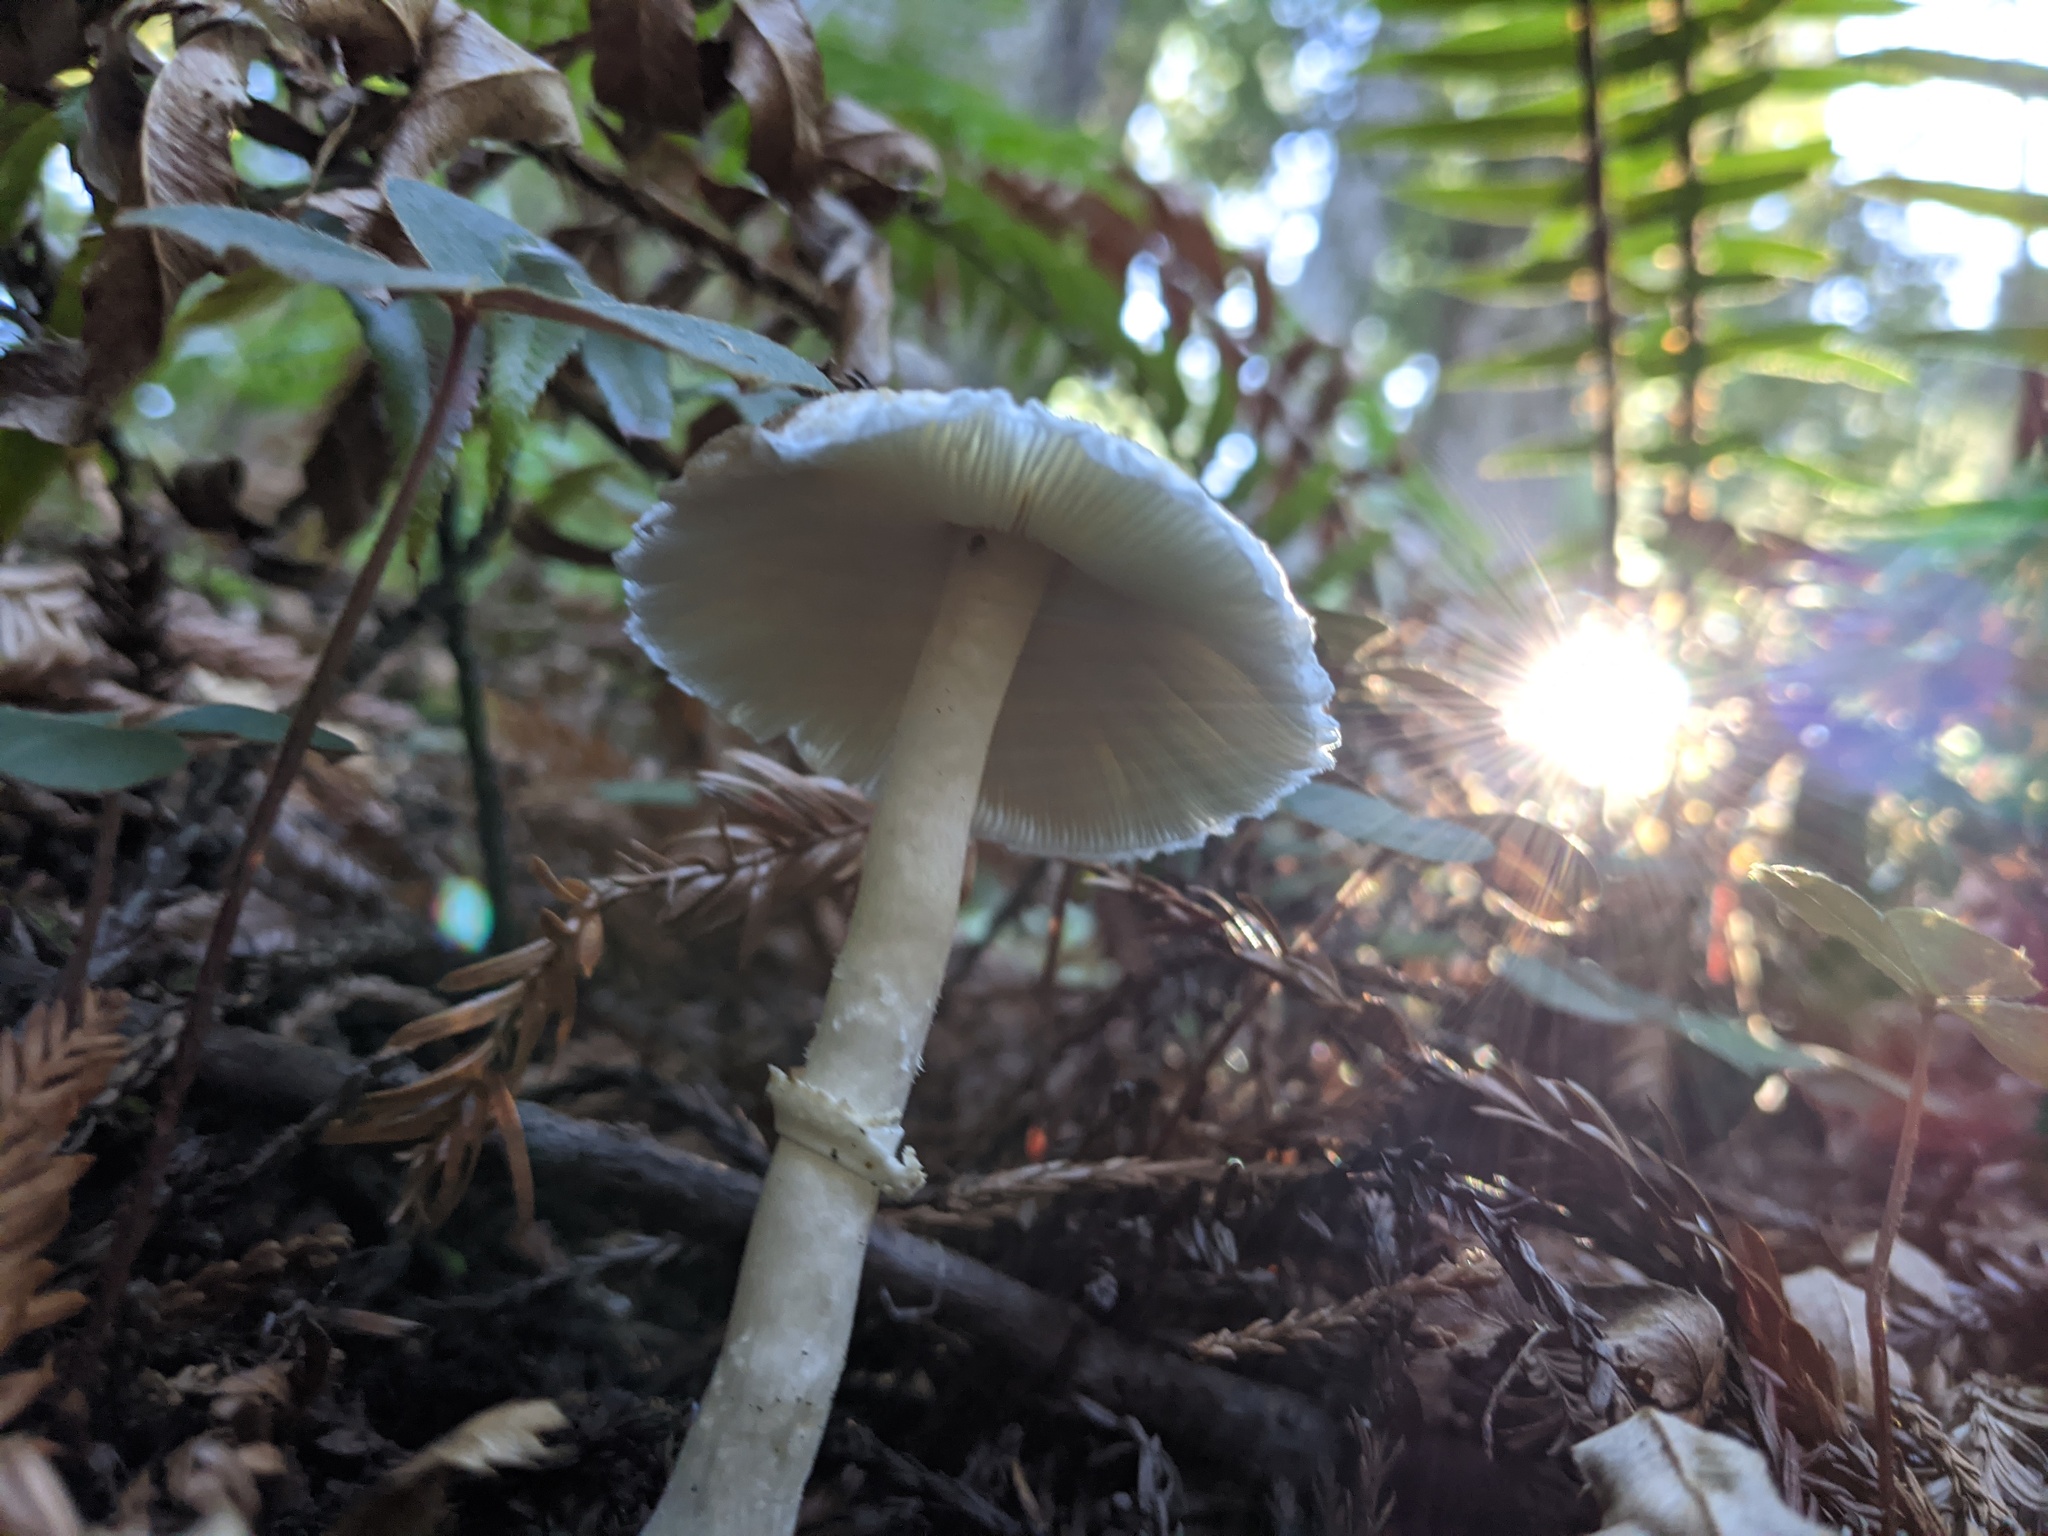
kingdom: Fungi
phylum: Basidiomycota
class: Agaricomycetes
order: Agaricales
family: Agaricaceae
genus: Lepiota
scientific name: Lepiota rubrotinctoides
